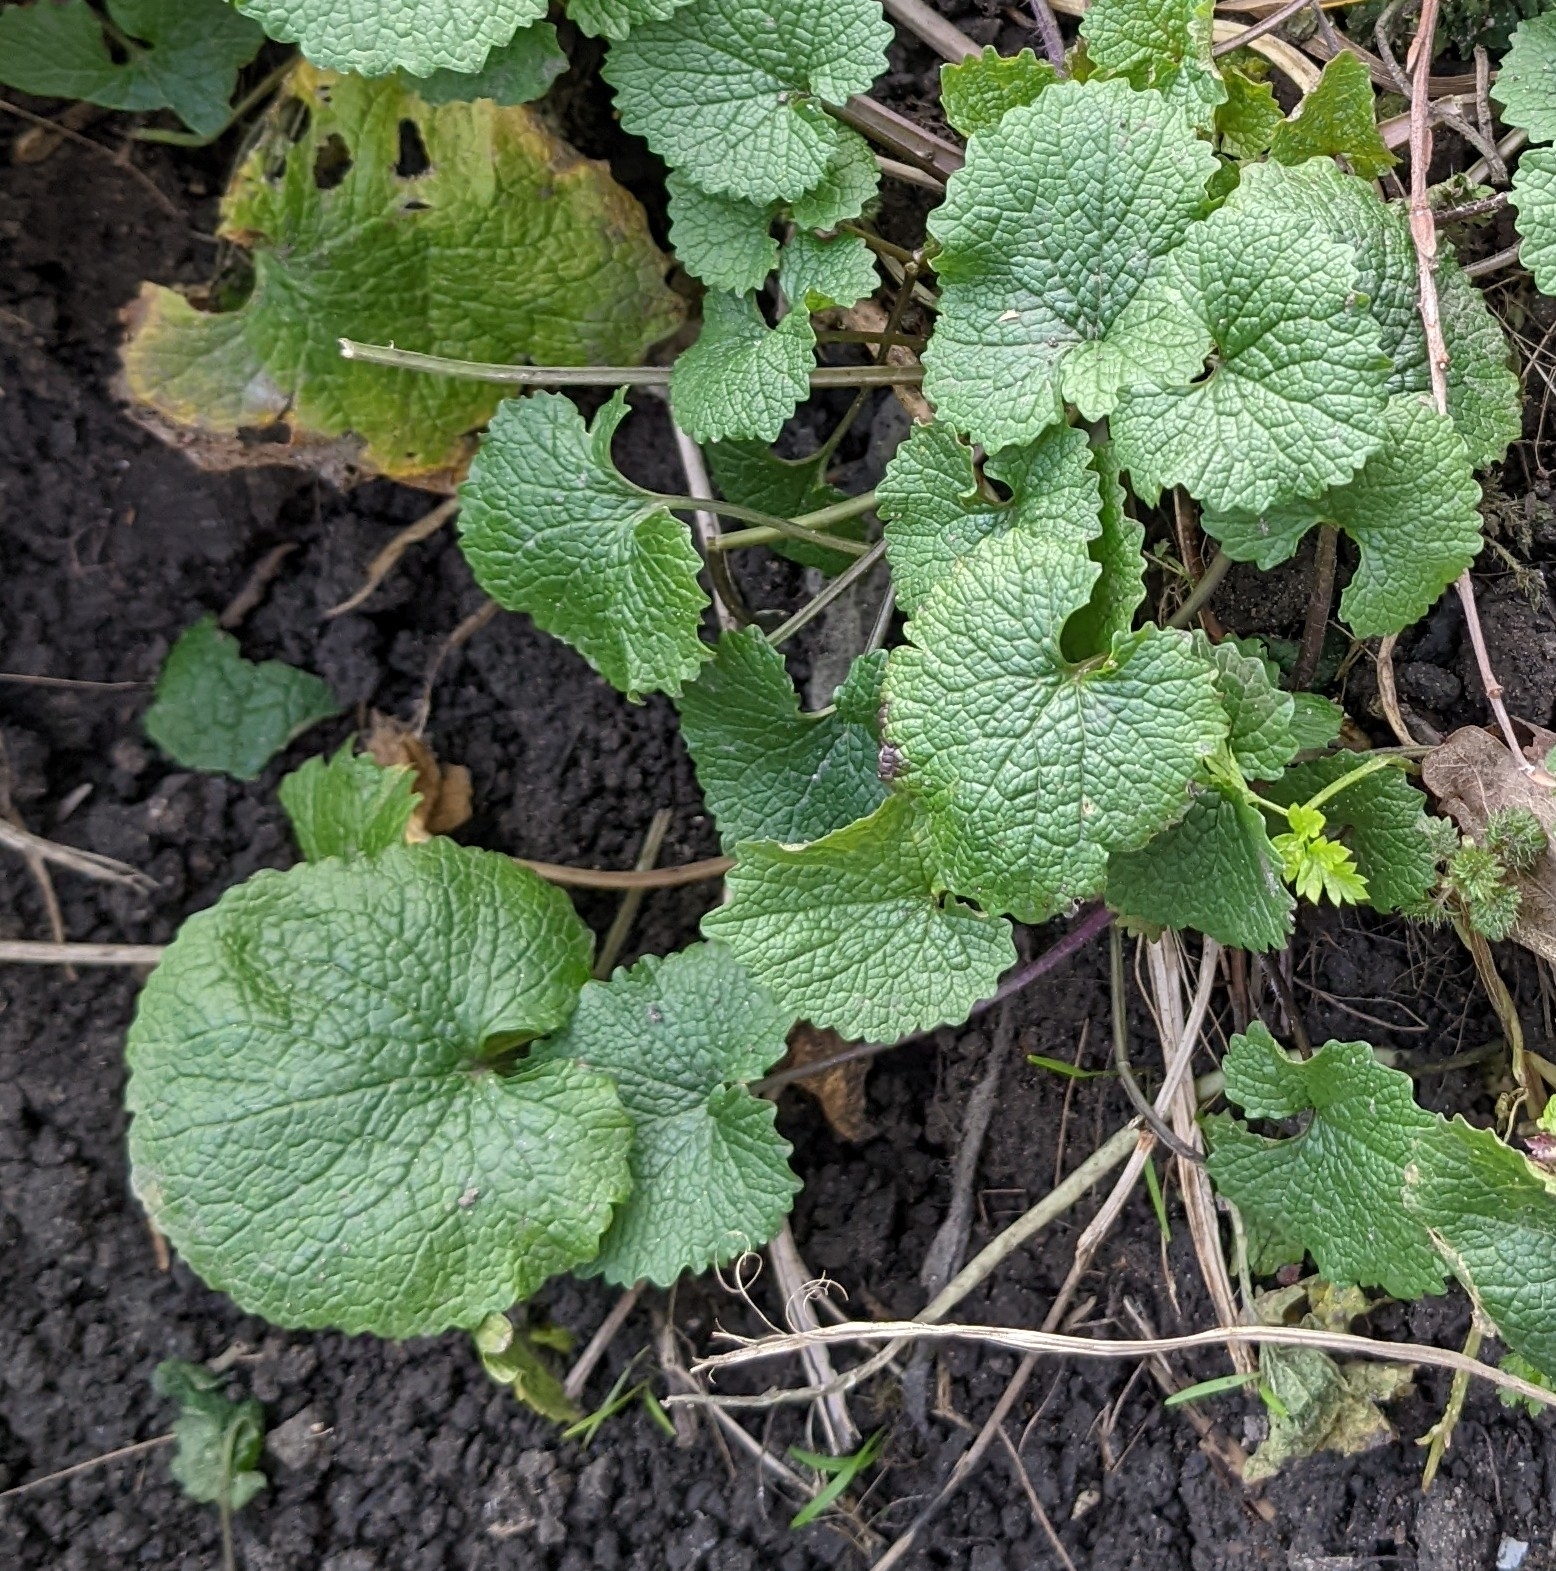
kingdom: Plantae
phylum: Tracheophyta
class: Magnoliopsida
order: Brassicales
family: Brassicaceae
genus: Alliaria
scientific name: Alliaria petiolata
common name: Garlic mustard
